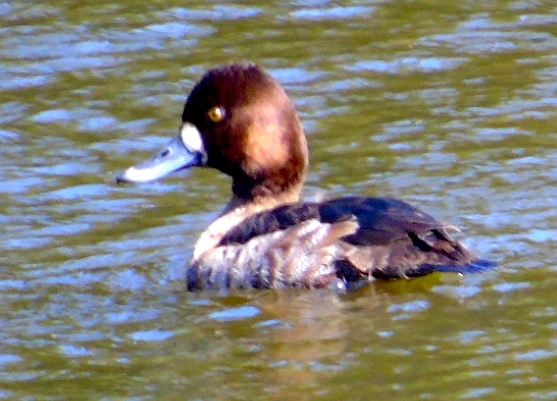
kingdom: Animalia
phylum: Chordata
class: Aves
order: Anseriformes
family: Anatidae
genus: Aythya
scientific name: Aythya affinis
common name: Lesser scaup
